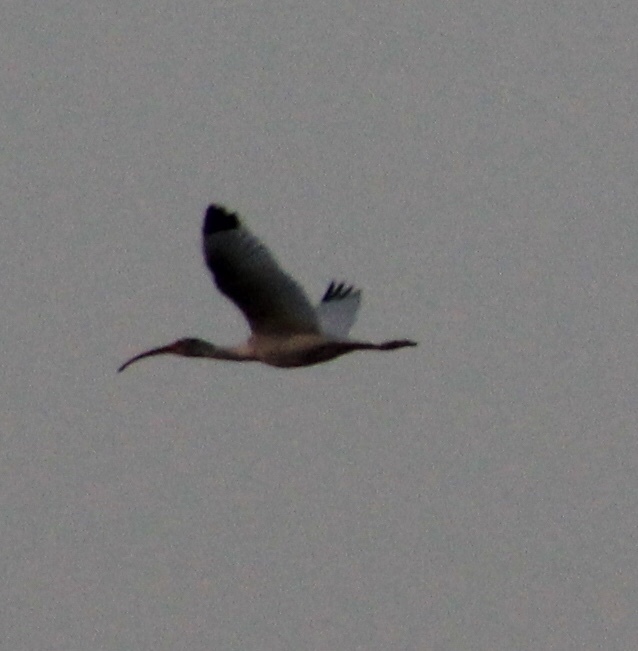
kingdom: Animalia
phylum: Chordata
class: Aves
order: Pelecaniformes
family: Threskiornithidae
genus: Eudocimus
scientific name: Eudocimus albus
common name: White ibis
